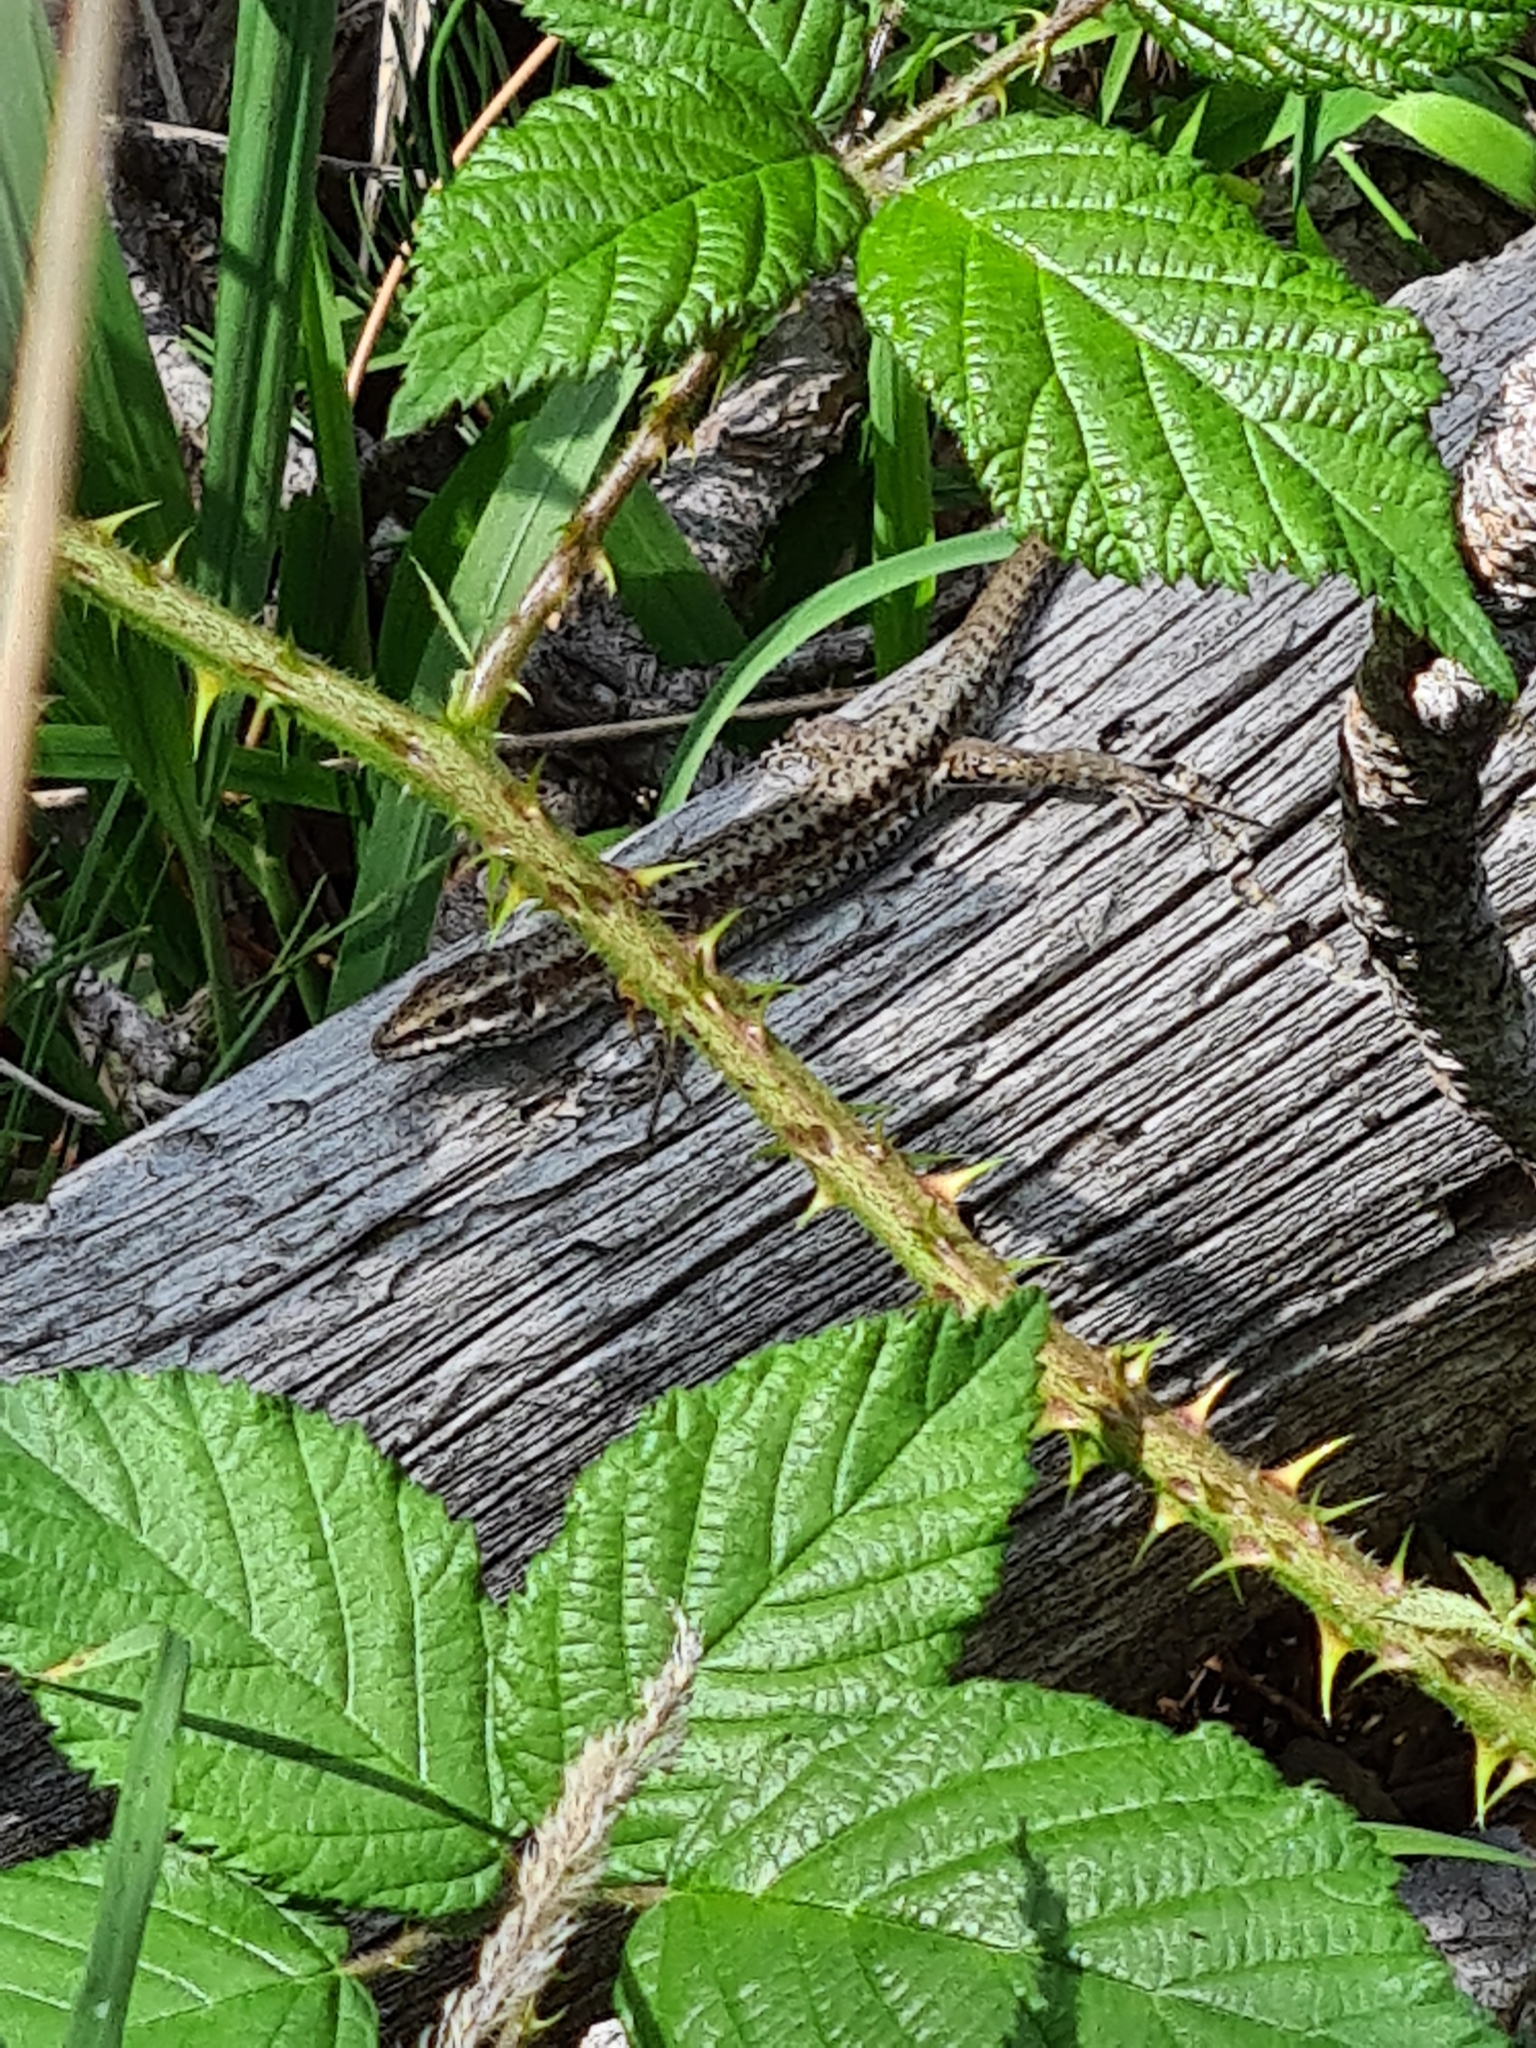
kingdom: Animalia
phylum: Chordata
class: Squamata
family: Lacertidae
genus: Podarcis
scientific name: Podarcis muralis
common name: Common wall lizard
